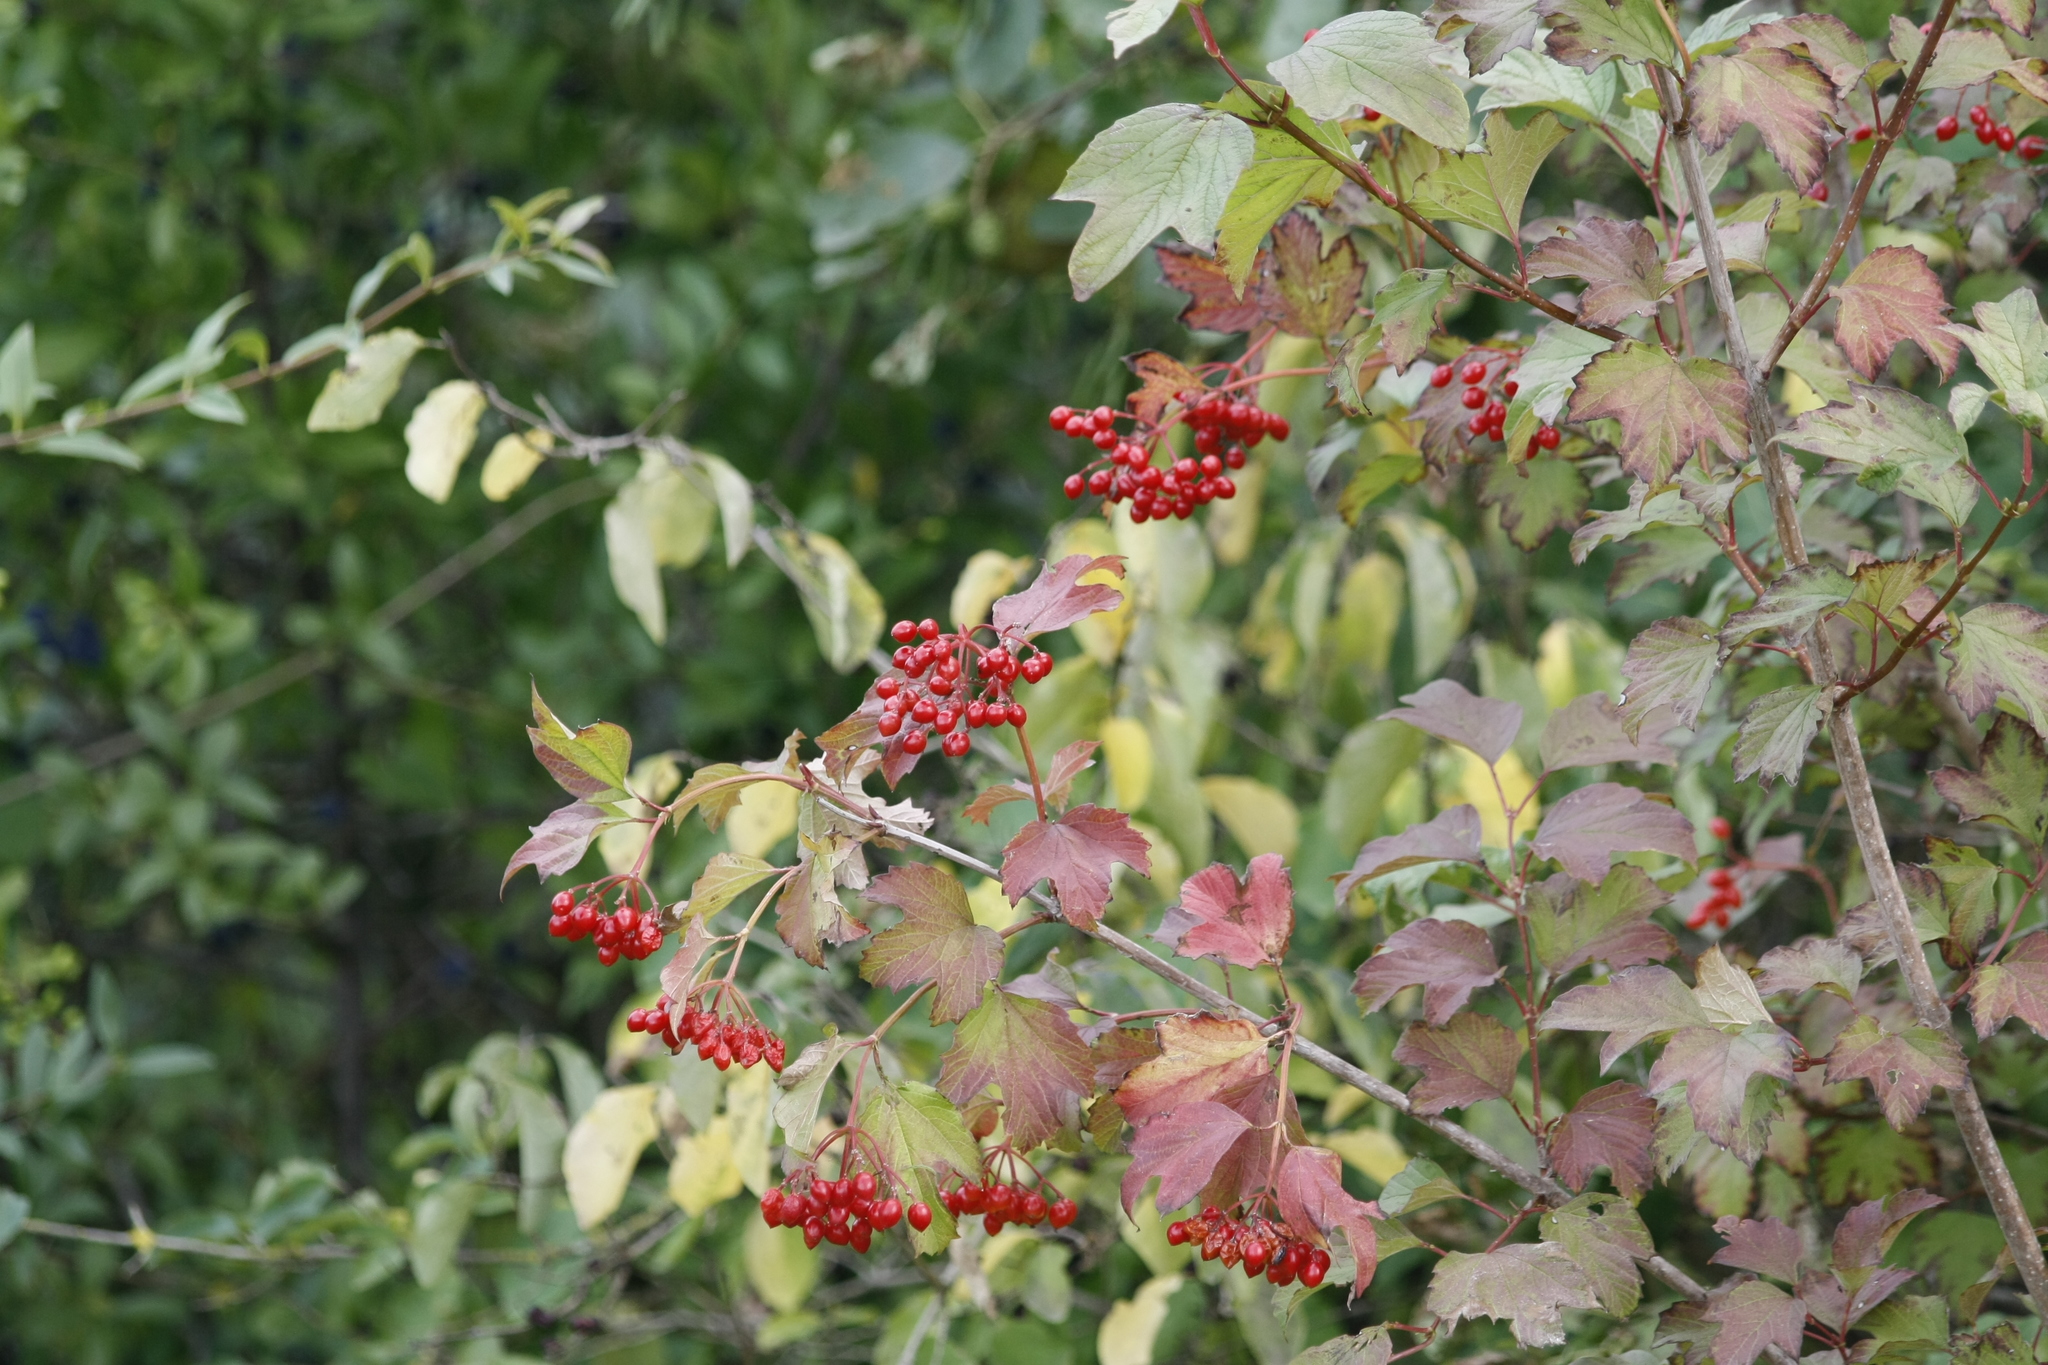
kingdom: Plantae
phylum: Tracheophyta
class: Magnoliopsida
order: Dipsacales
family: Viburnaceae
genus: Viburnum
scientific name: Viburnum opulus
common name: Guelder-rose
